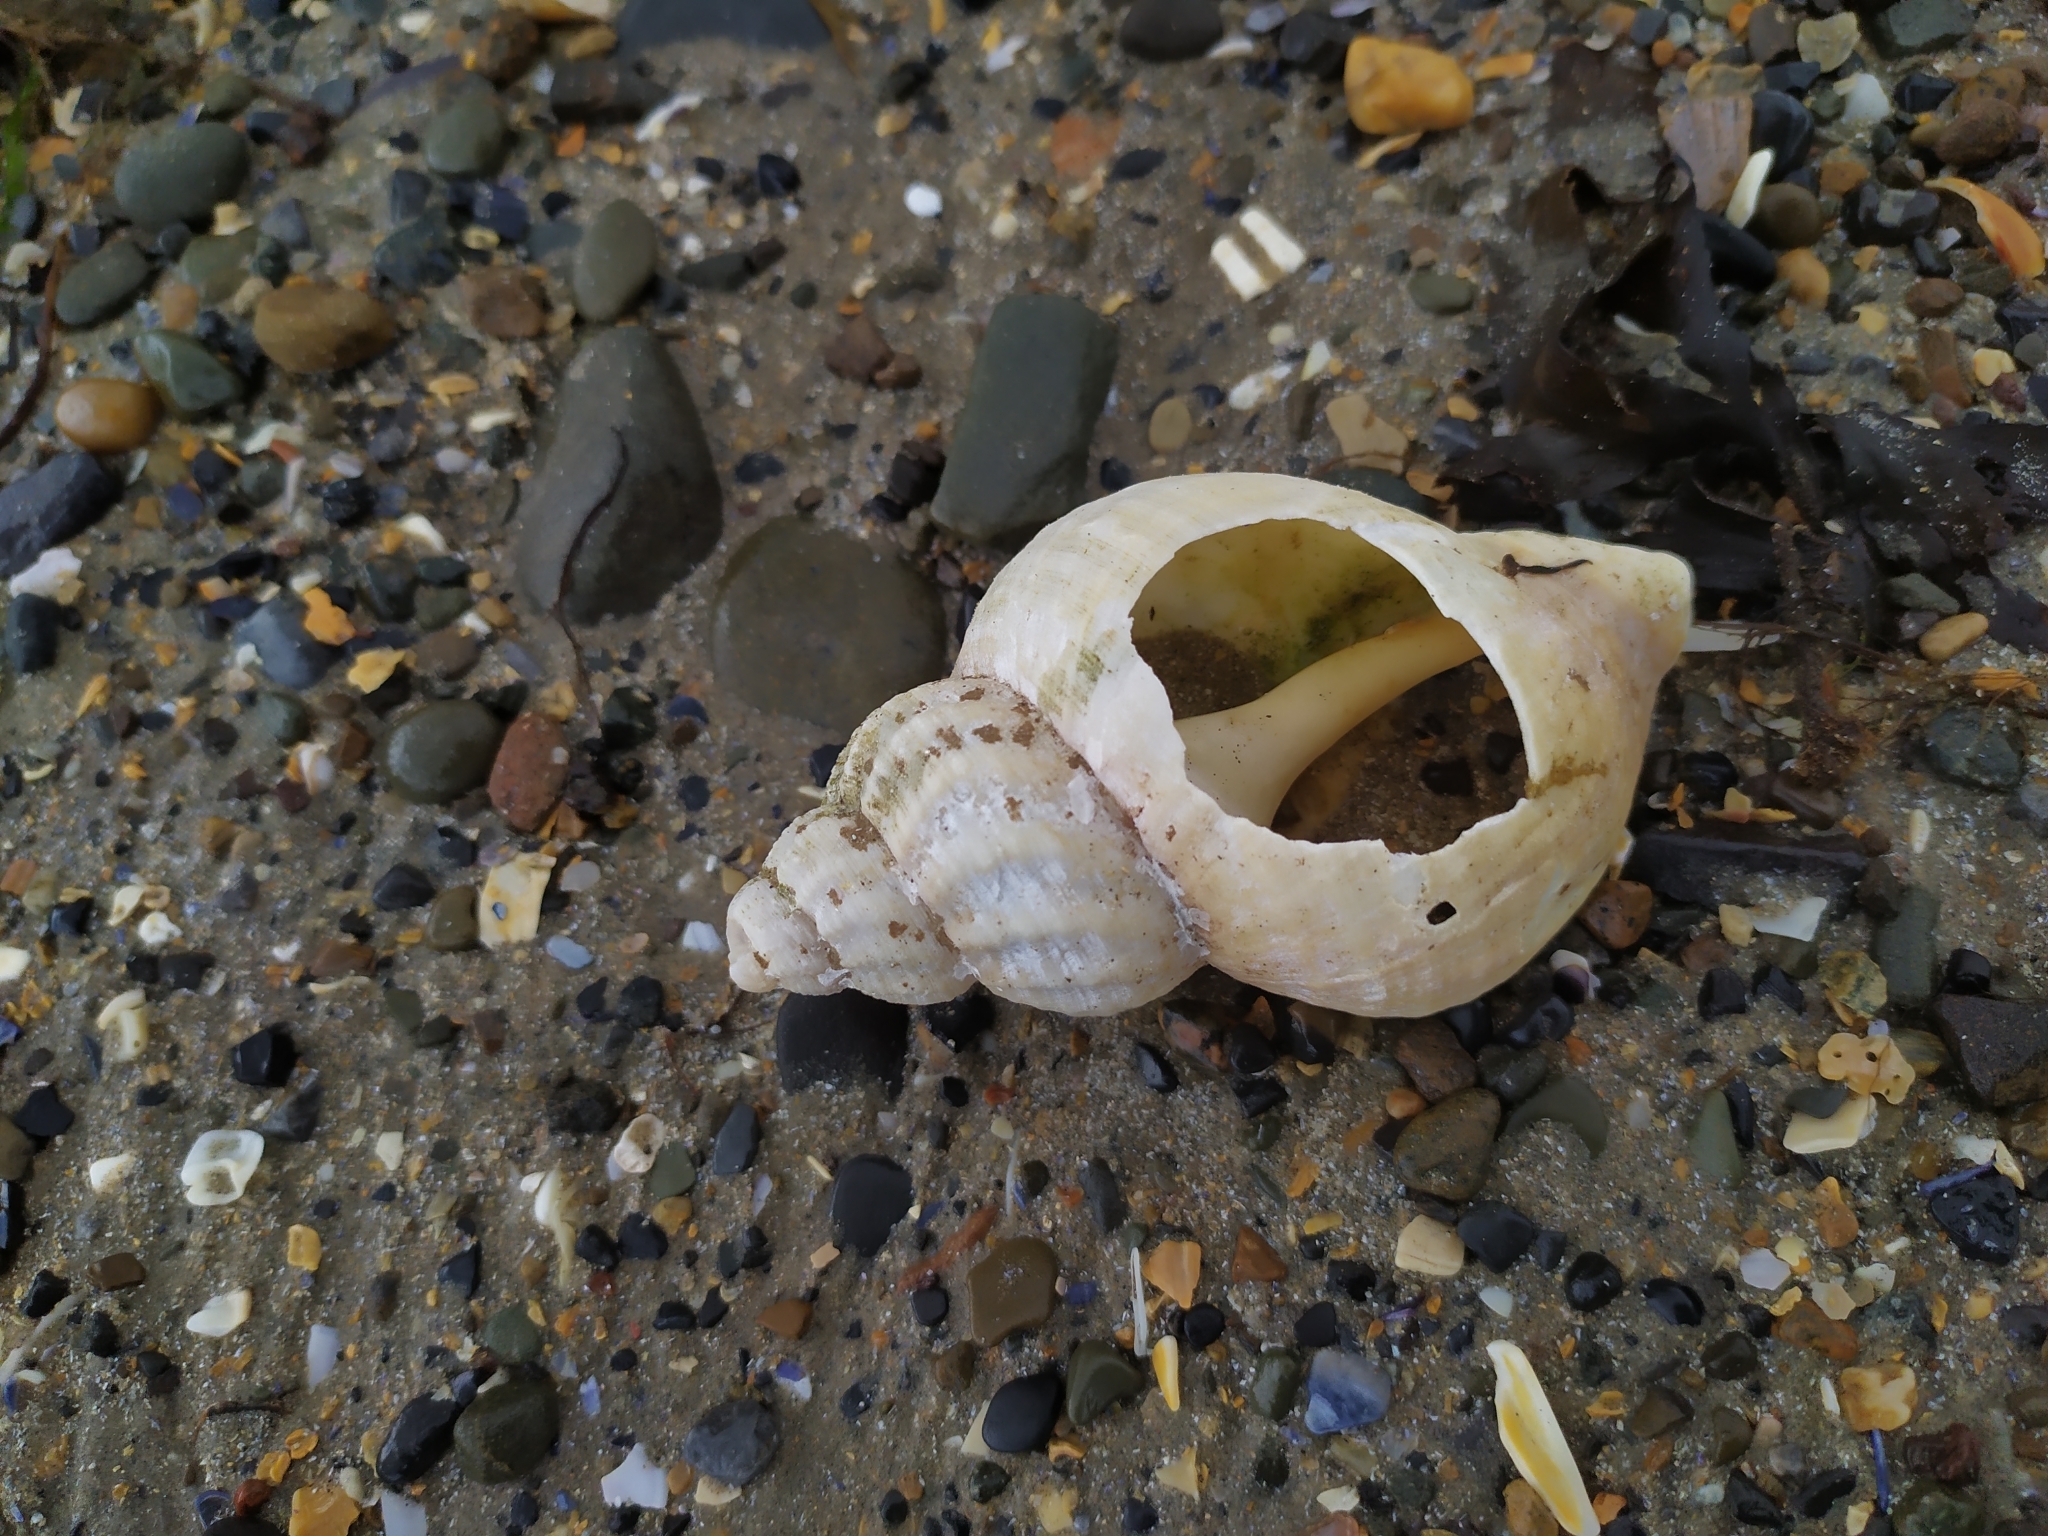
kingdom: Animalia
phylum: Mollusca
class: Gastropoda
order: Neogastropoda
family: Buccinidae
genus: Buccinum
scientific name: Buccinum undatum
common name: Common whelk
